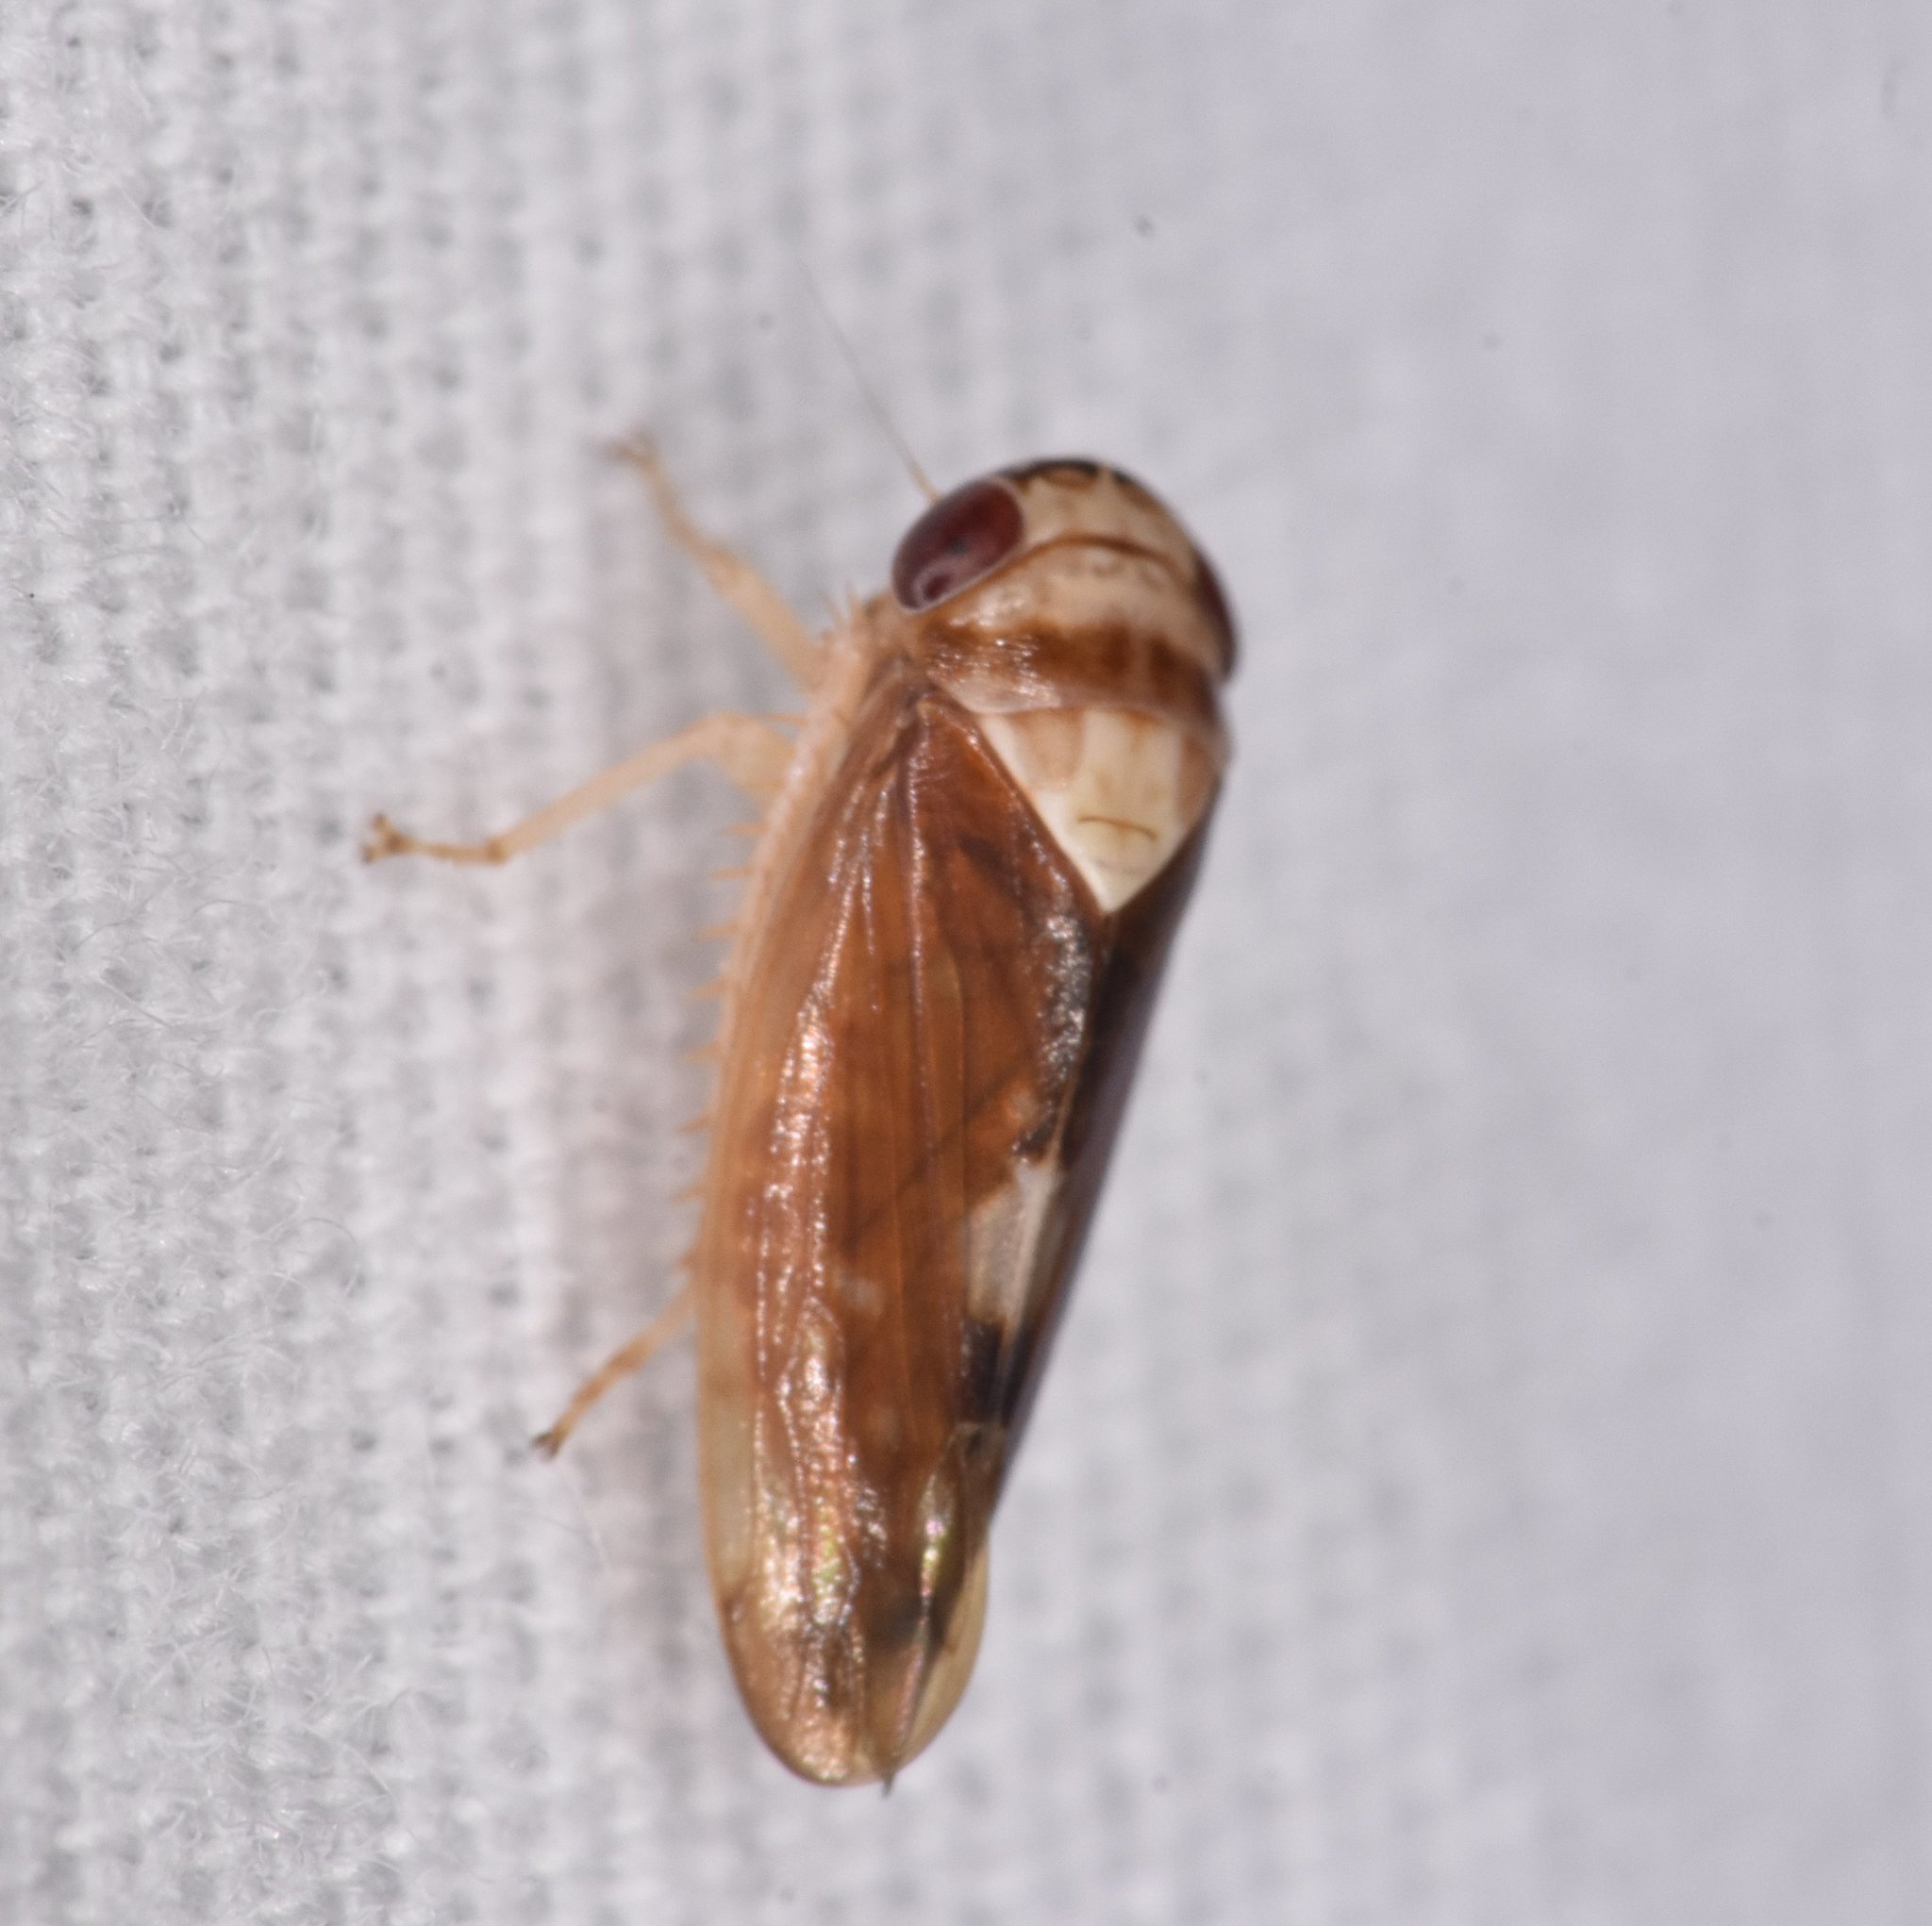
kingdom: Animalia
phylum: Arthropoda
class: Insecta
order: Hemiptera
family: Cicadellidae
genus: Eutettix
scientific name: Eutettix pictus
